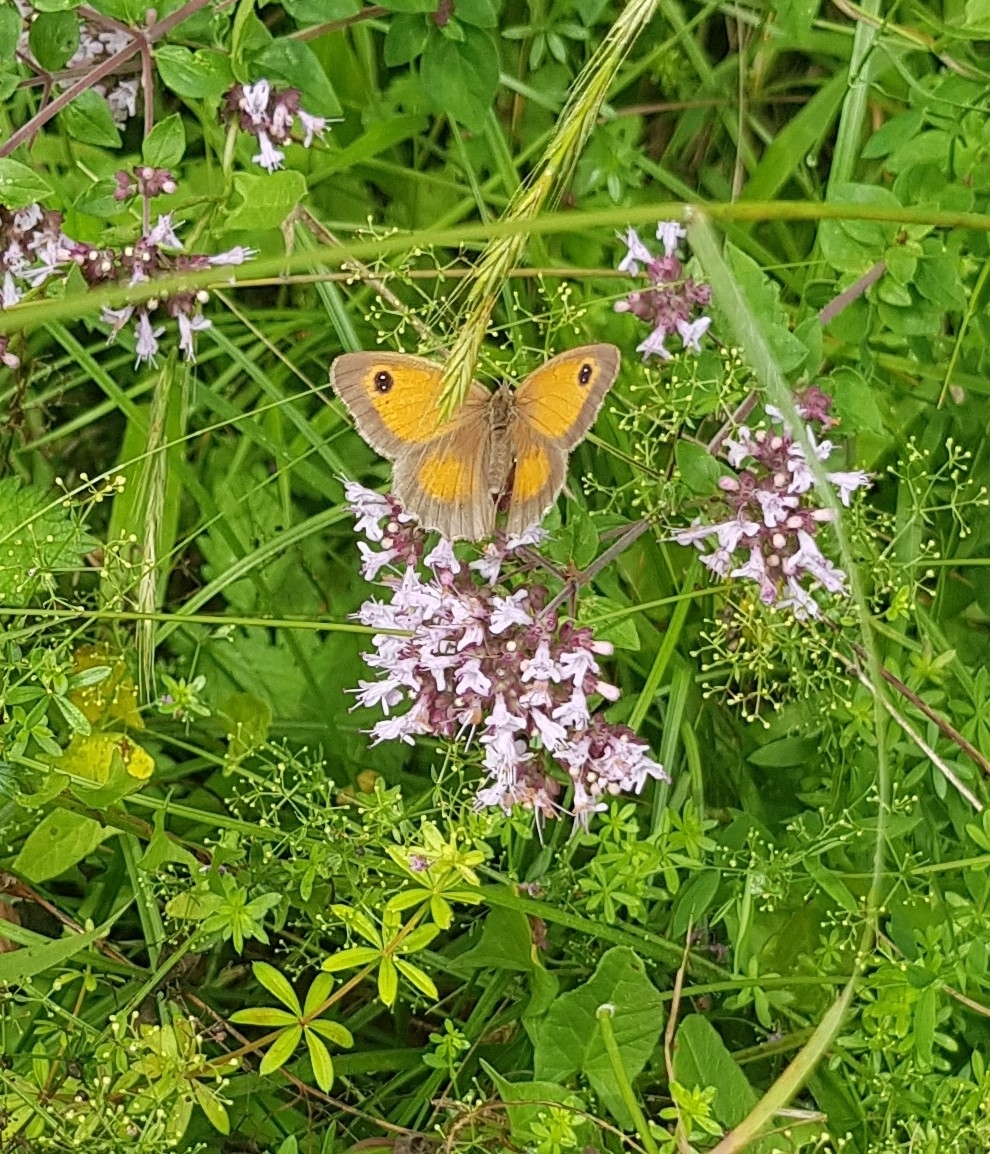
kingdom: Animalia
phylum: Arthropoda
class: Insecta
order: Lepidoptera
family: Nymphalidae
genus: Pyronia
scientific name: Pyronia tithonus
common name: Gatekeeper
